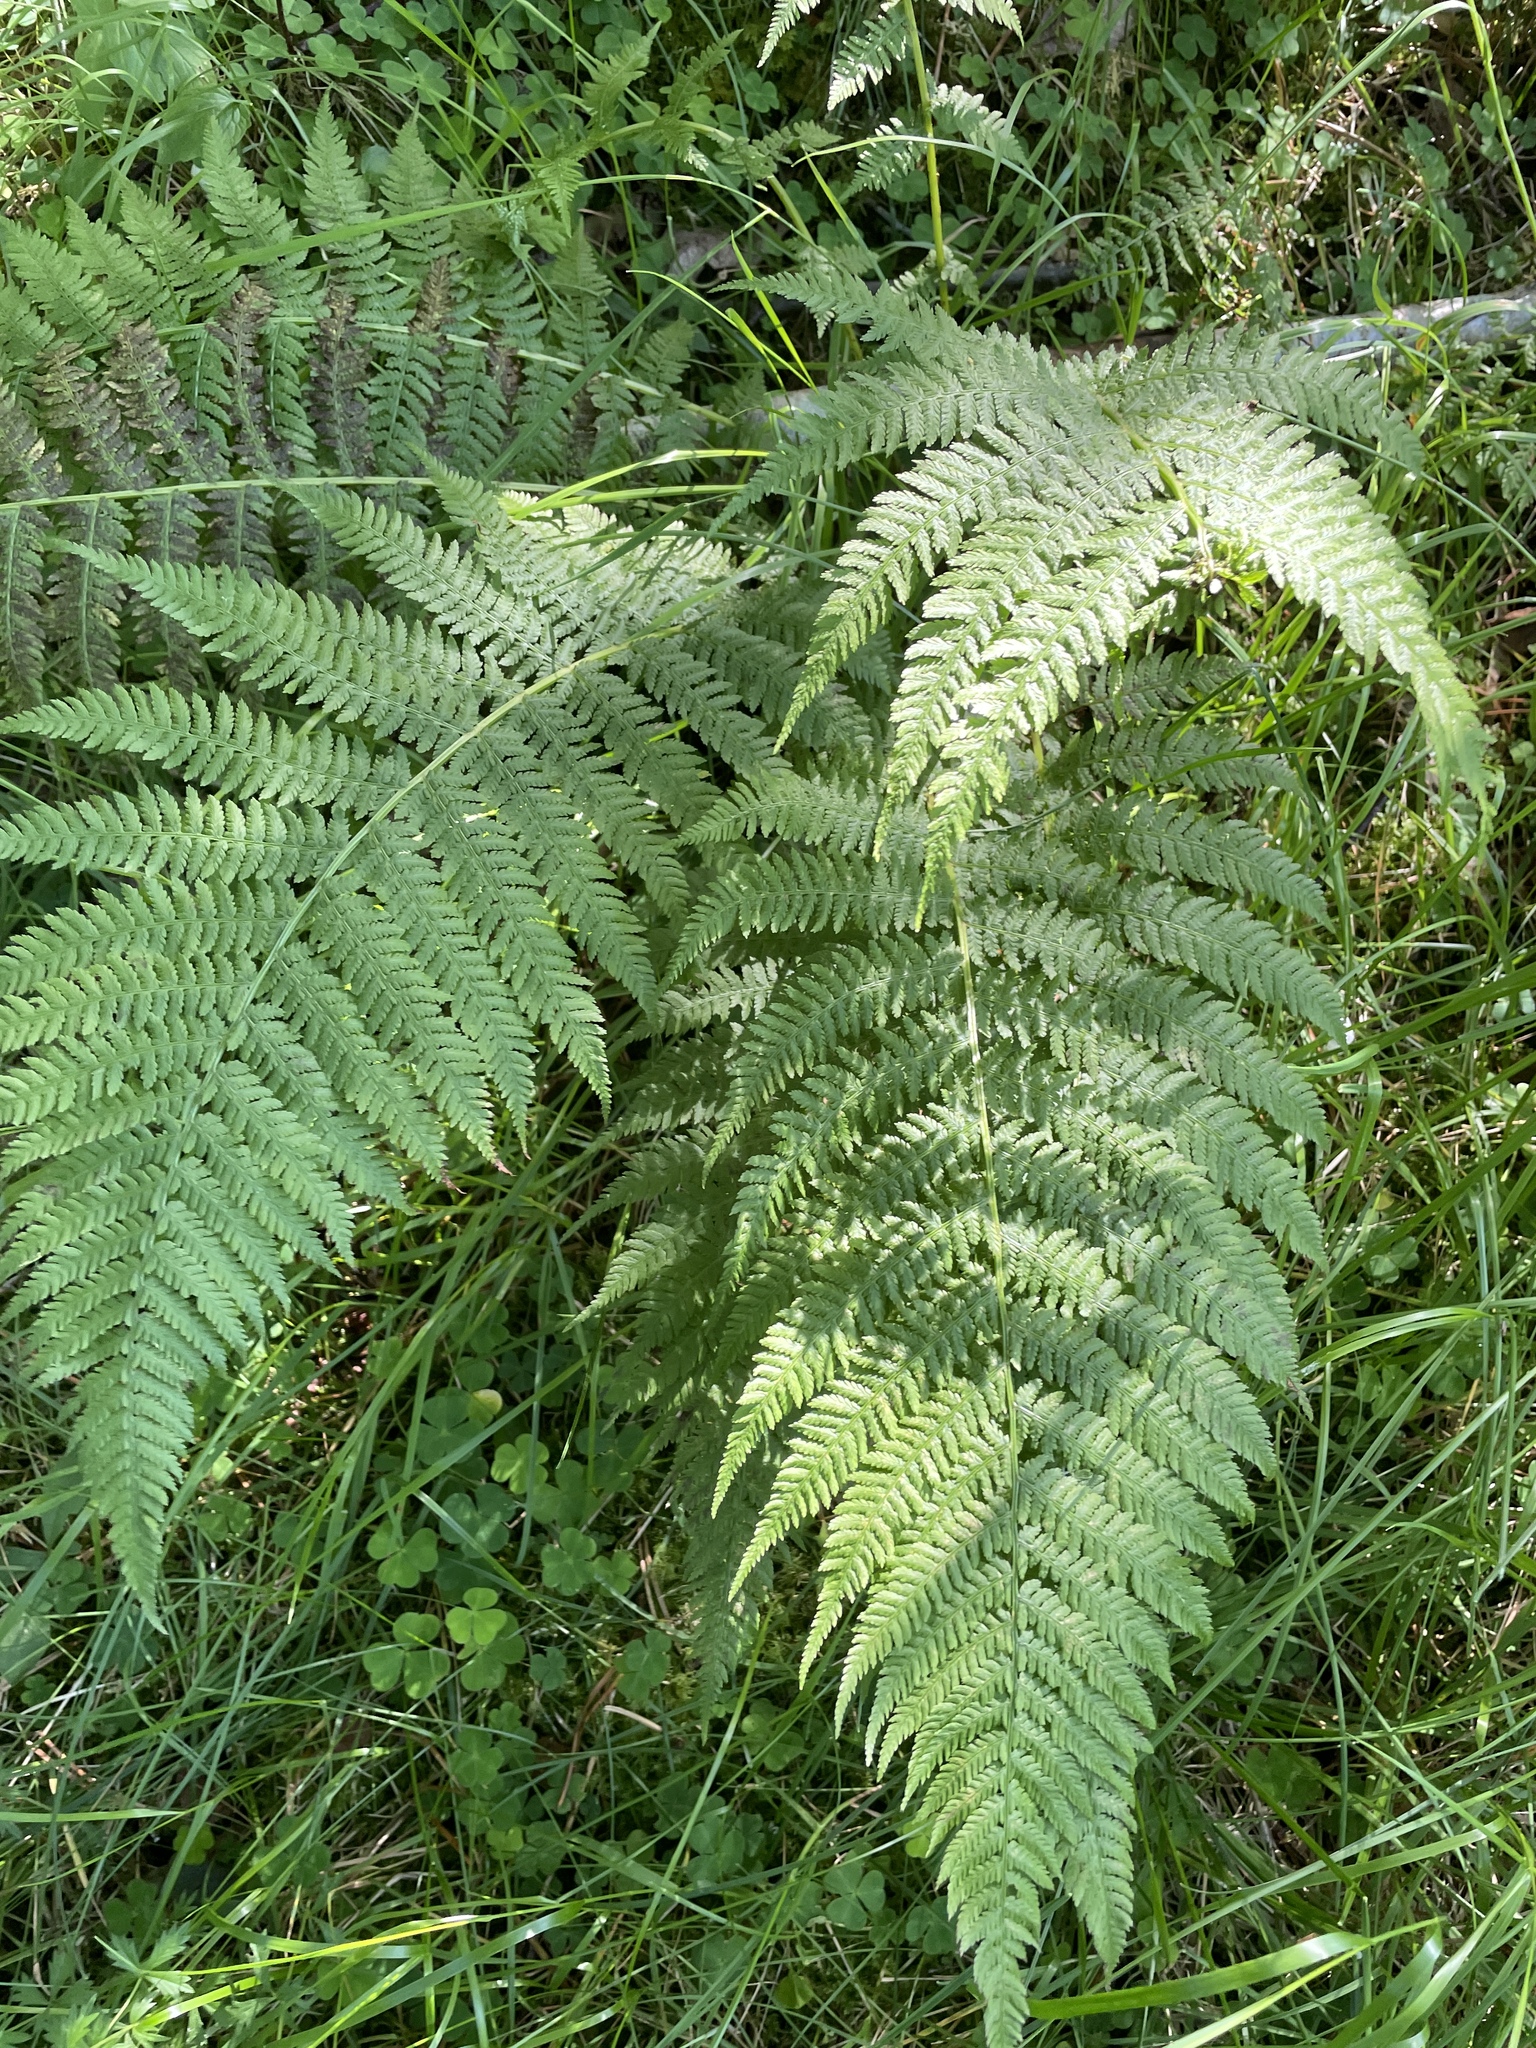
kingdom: Plantae
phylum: Tracheophyta
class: Polypodiopsida
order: Polypodiales
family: Athyriaceae
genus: Athyrium
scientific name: Athyrium filix-femina
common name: Lady fern
